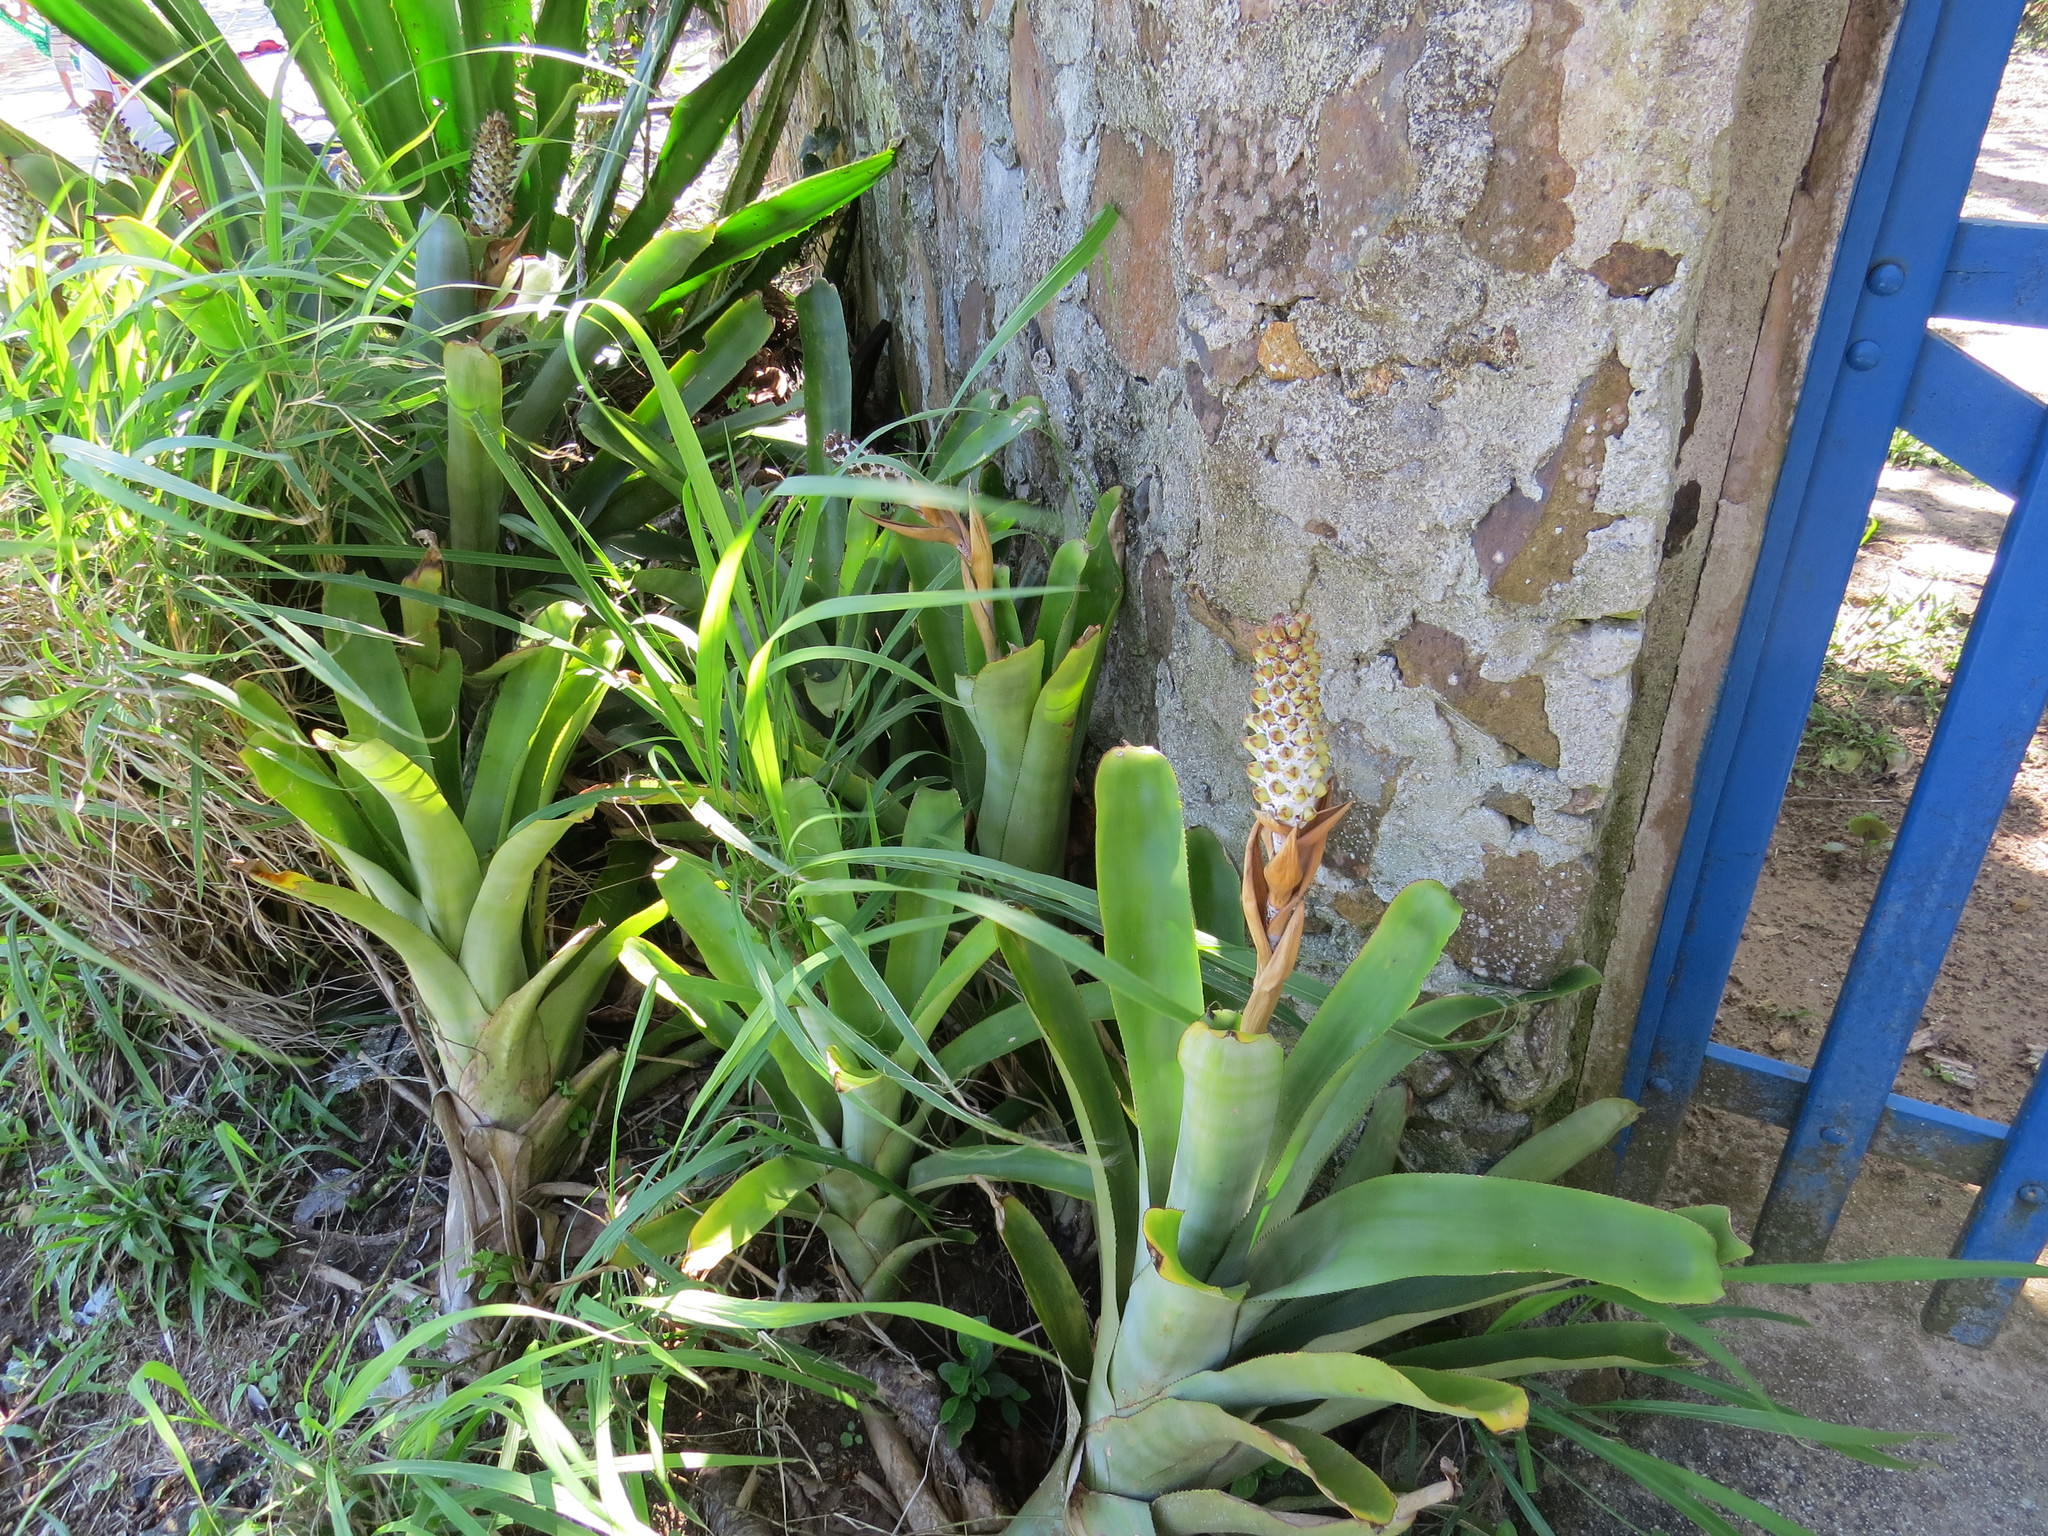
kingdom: Plantae
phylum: Tracheophyta
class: Liliopsida
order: Poales
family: Bromeliaceae
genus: Aechmea
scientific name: Aechmea maasii
